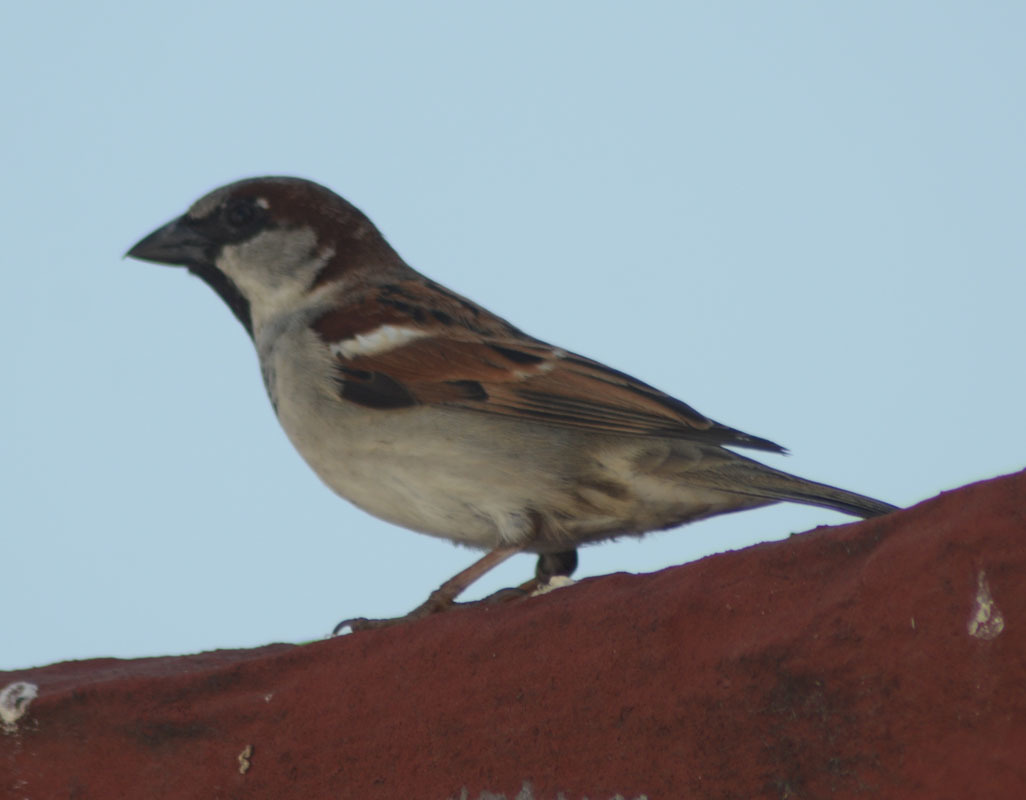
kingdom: Animalia
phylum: Chordata
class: Aves
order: Passeriformes
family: Passeridae
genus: Passer
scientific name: Passer domesticus
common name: House sparrow
